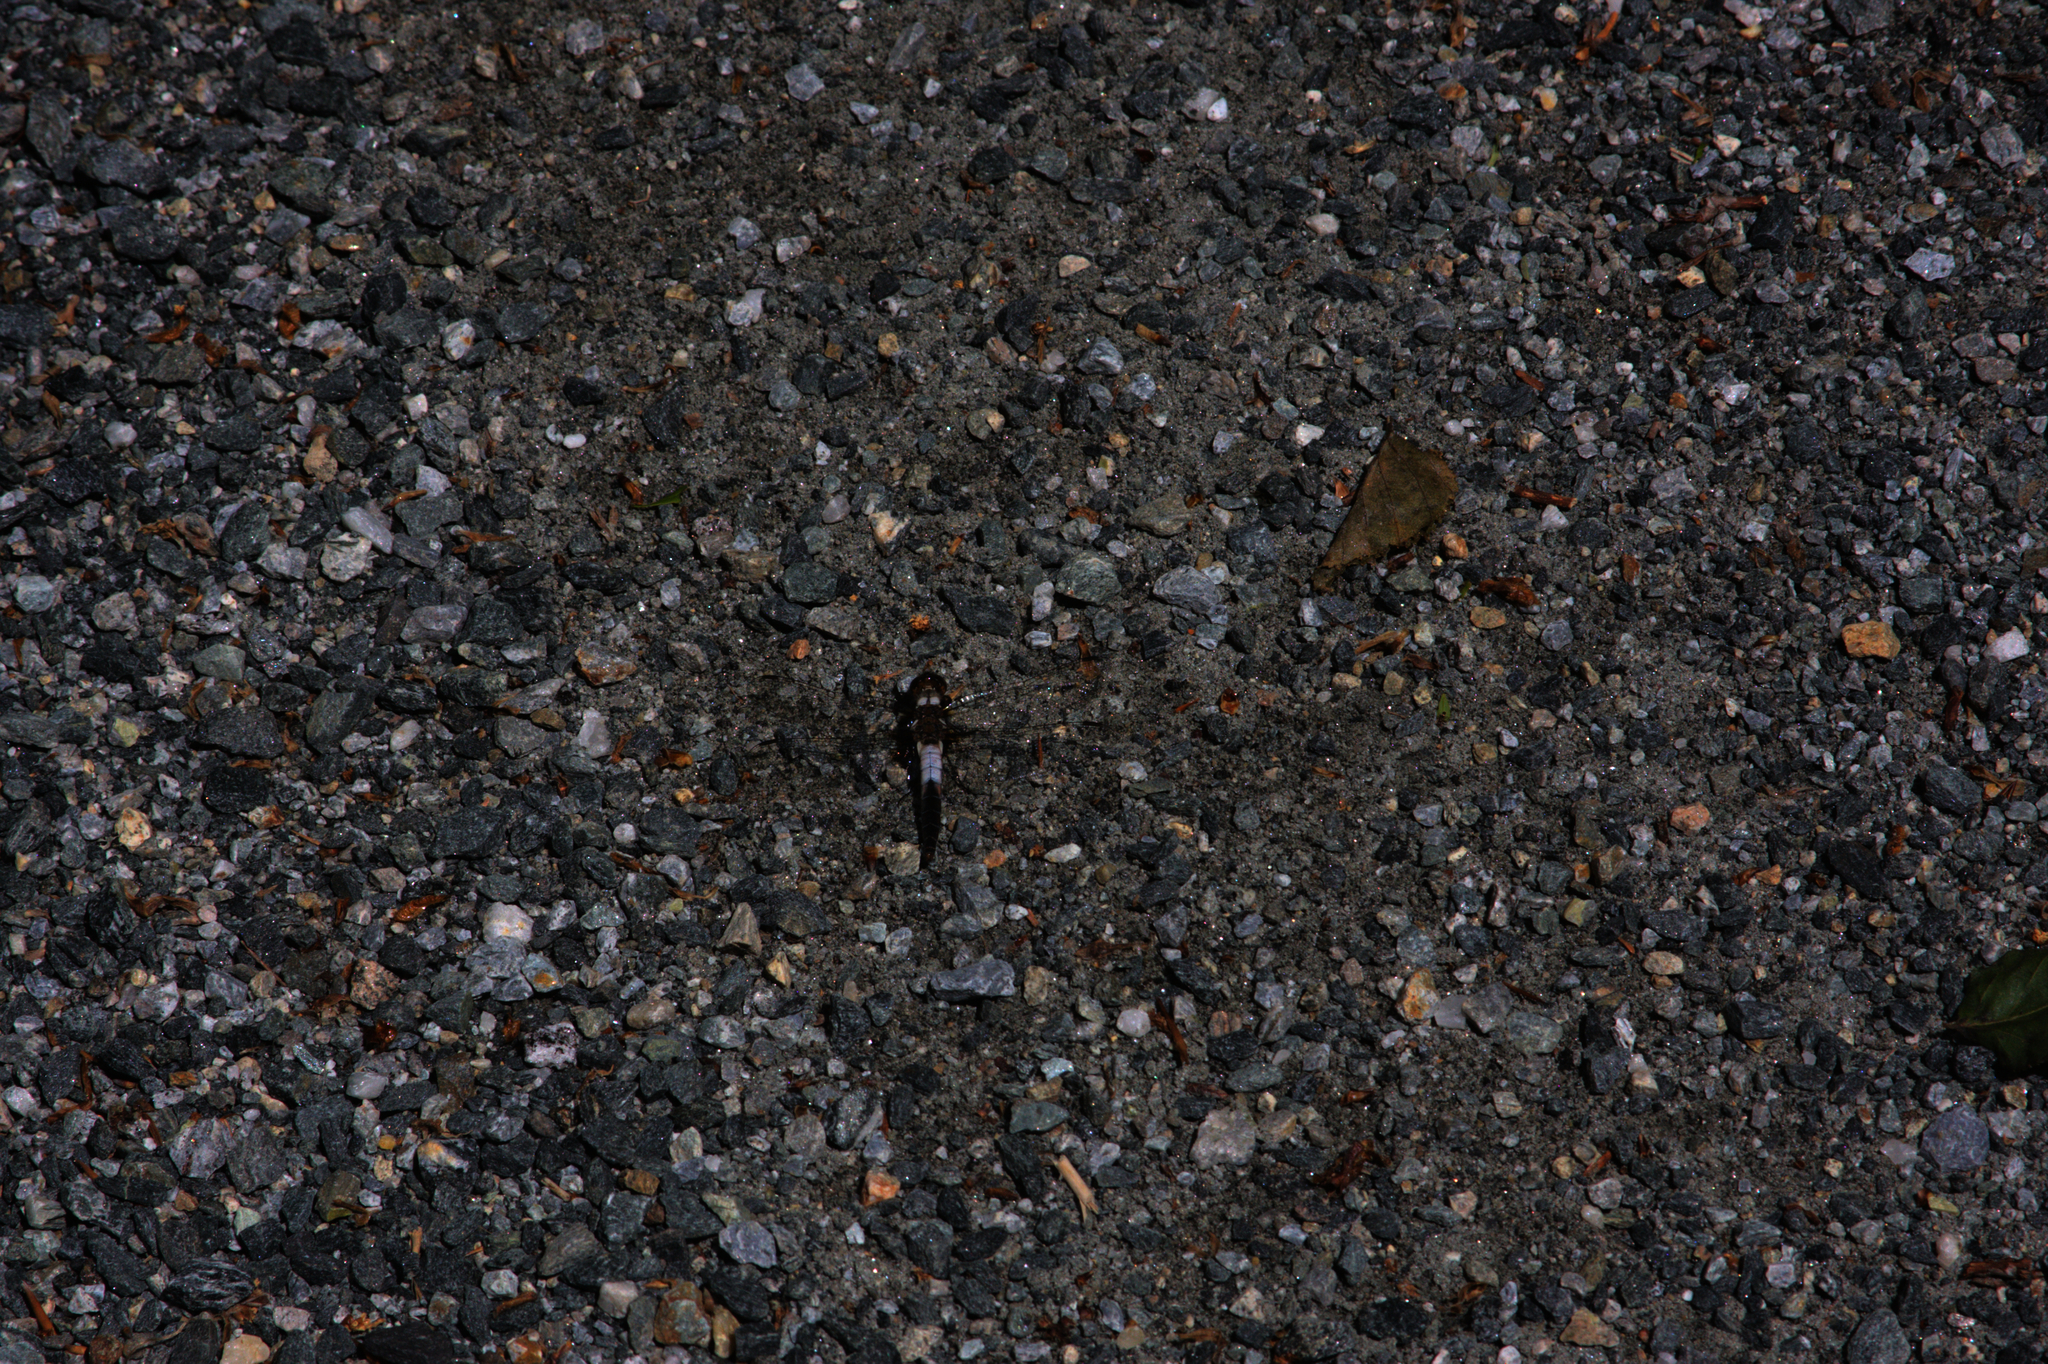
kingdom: Animalia
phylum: Arthropoda
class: Insecta
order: Odonata
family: Libellulidae
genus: Ladona
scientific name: Ladona julia
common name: Chalk-fronted corporal
